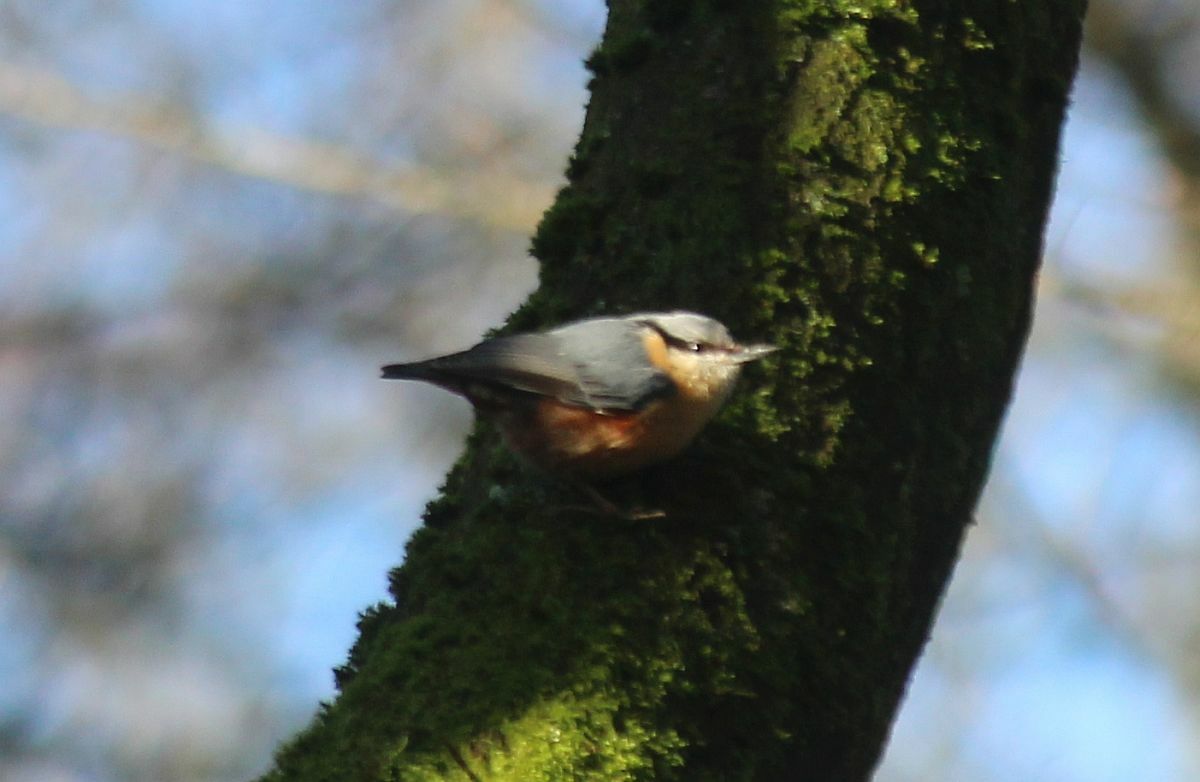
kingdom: Animalia
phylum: Chordata
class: Aves
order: Passeriformes
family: Sittidae
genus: Sitta
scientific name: Sitta europaea
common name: Eurasian nuthatch
